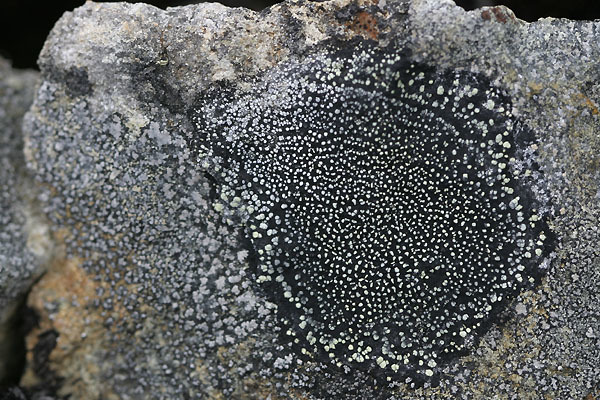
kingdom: Fungi
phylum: Ascomycota
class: Lecanoromycetes
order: Caliciales
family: Caliciaceae
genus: Buellia
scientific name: Buellia frigida
